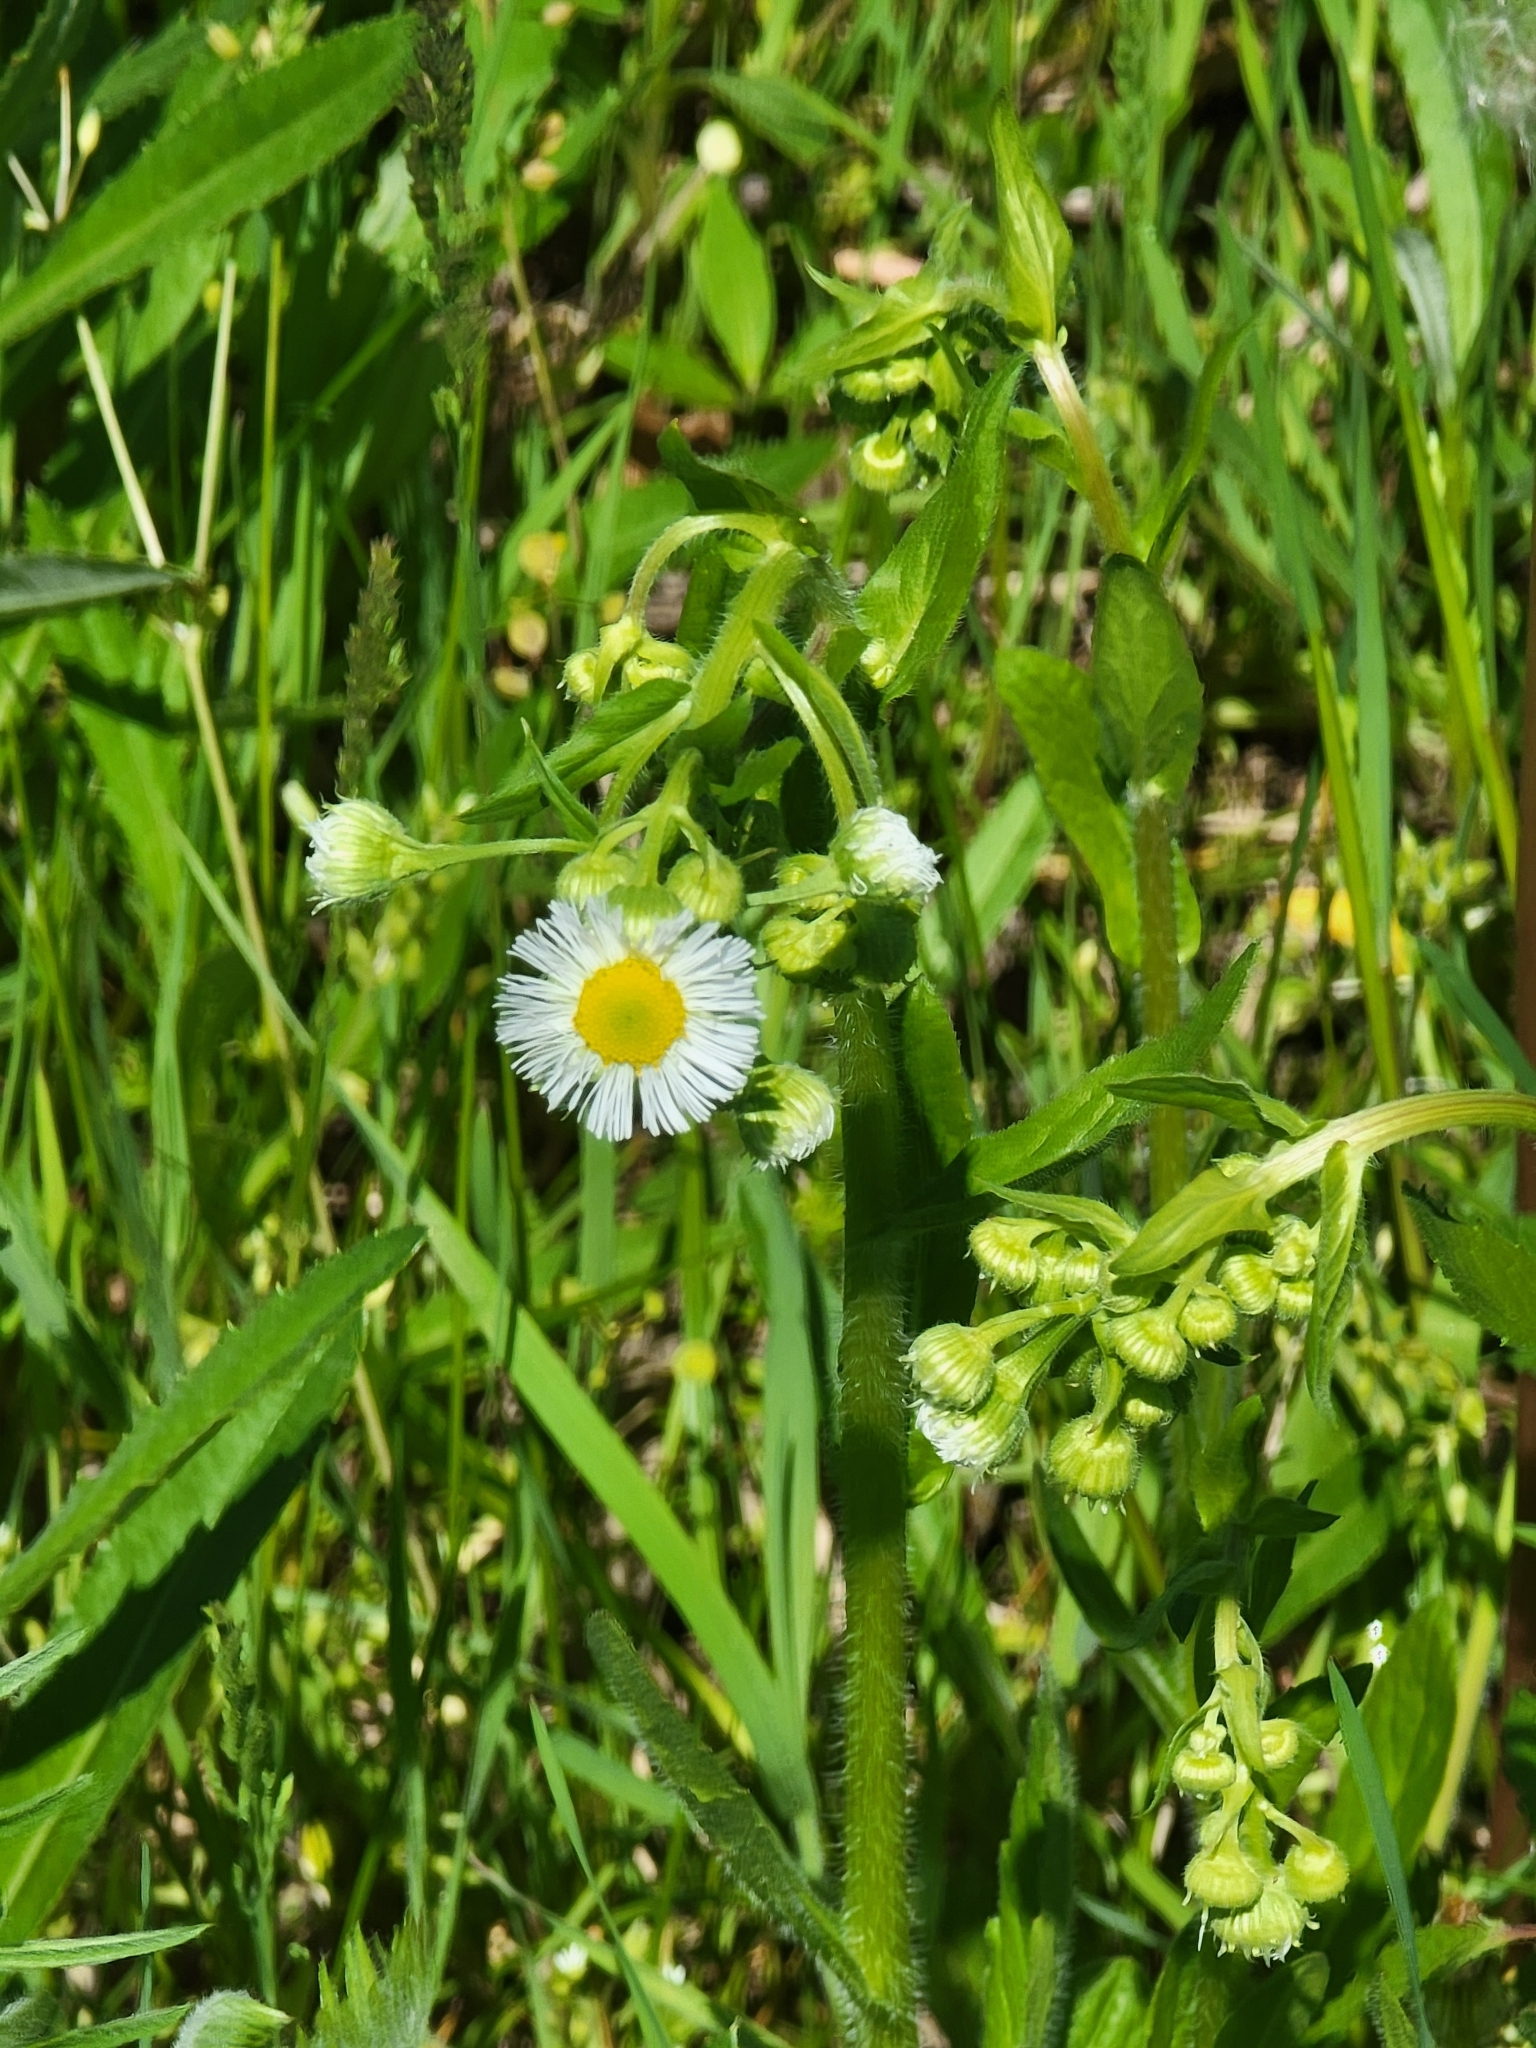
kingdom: Plantae
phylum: Tracheophyta
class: Magnoliopsida
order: Asterales
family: Asteraceae
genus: Erigeron
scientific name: Erigeron philadelphicus
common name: Robin's-plantain
